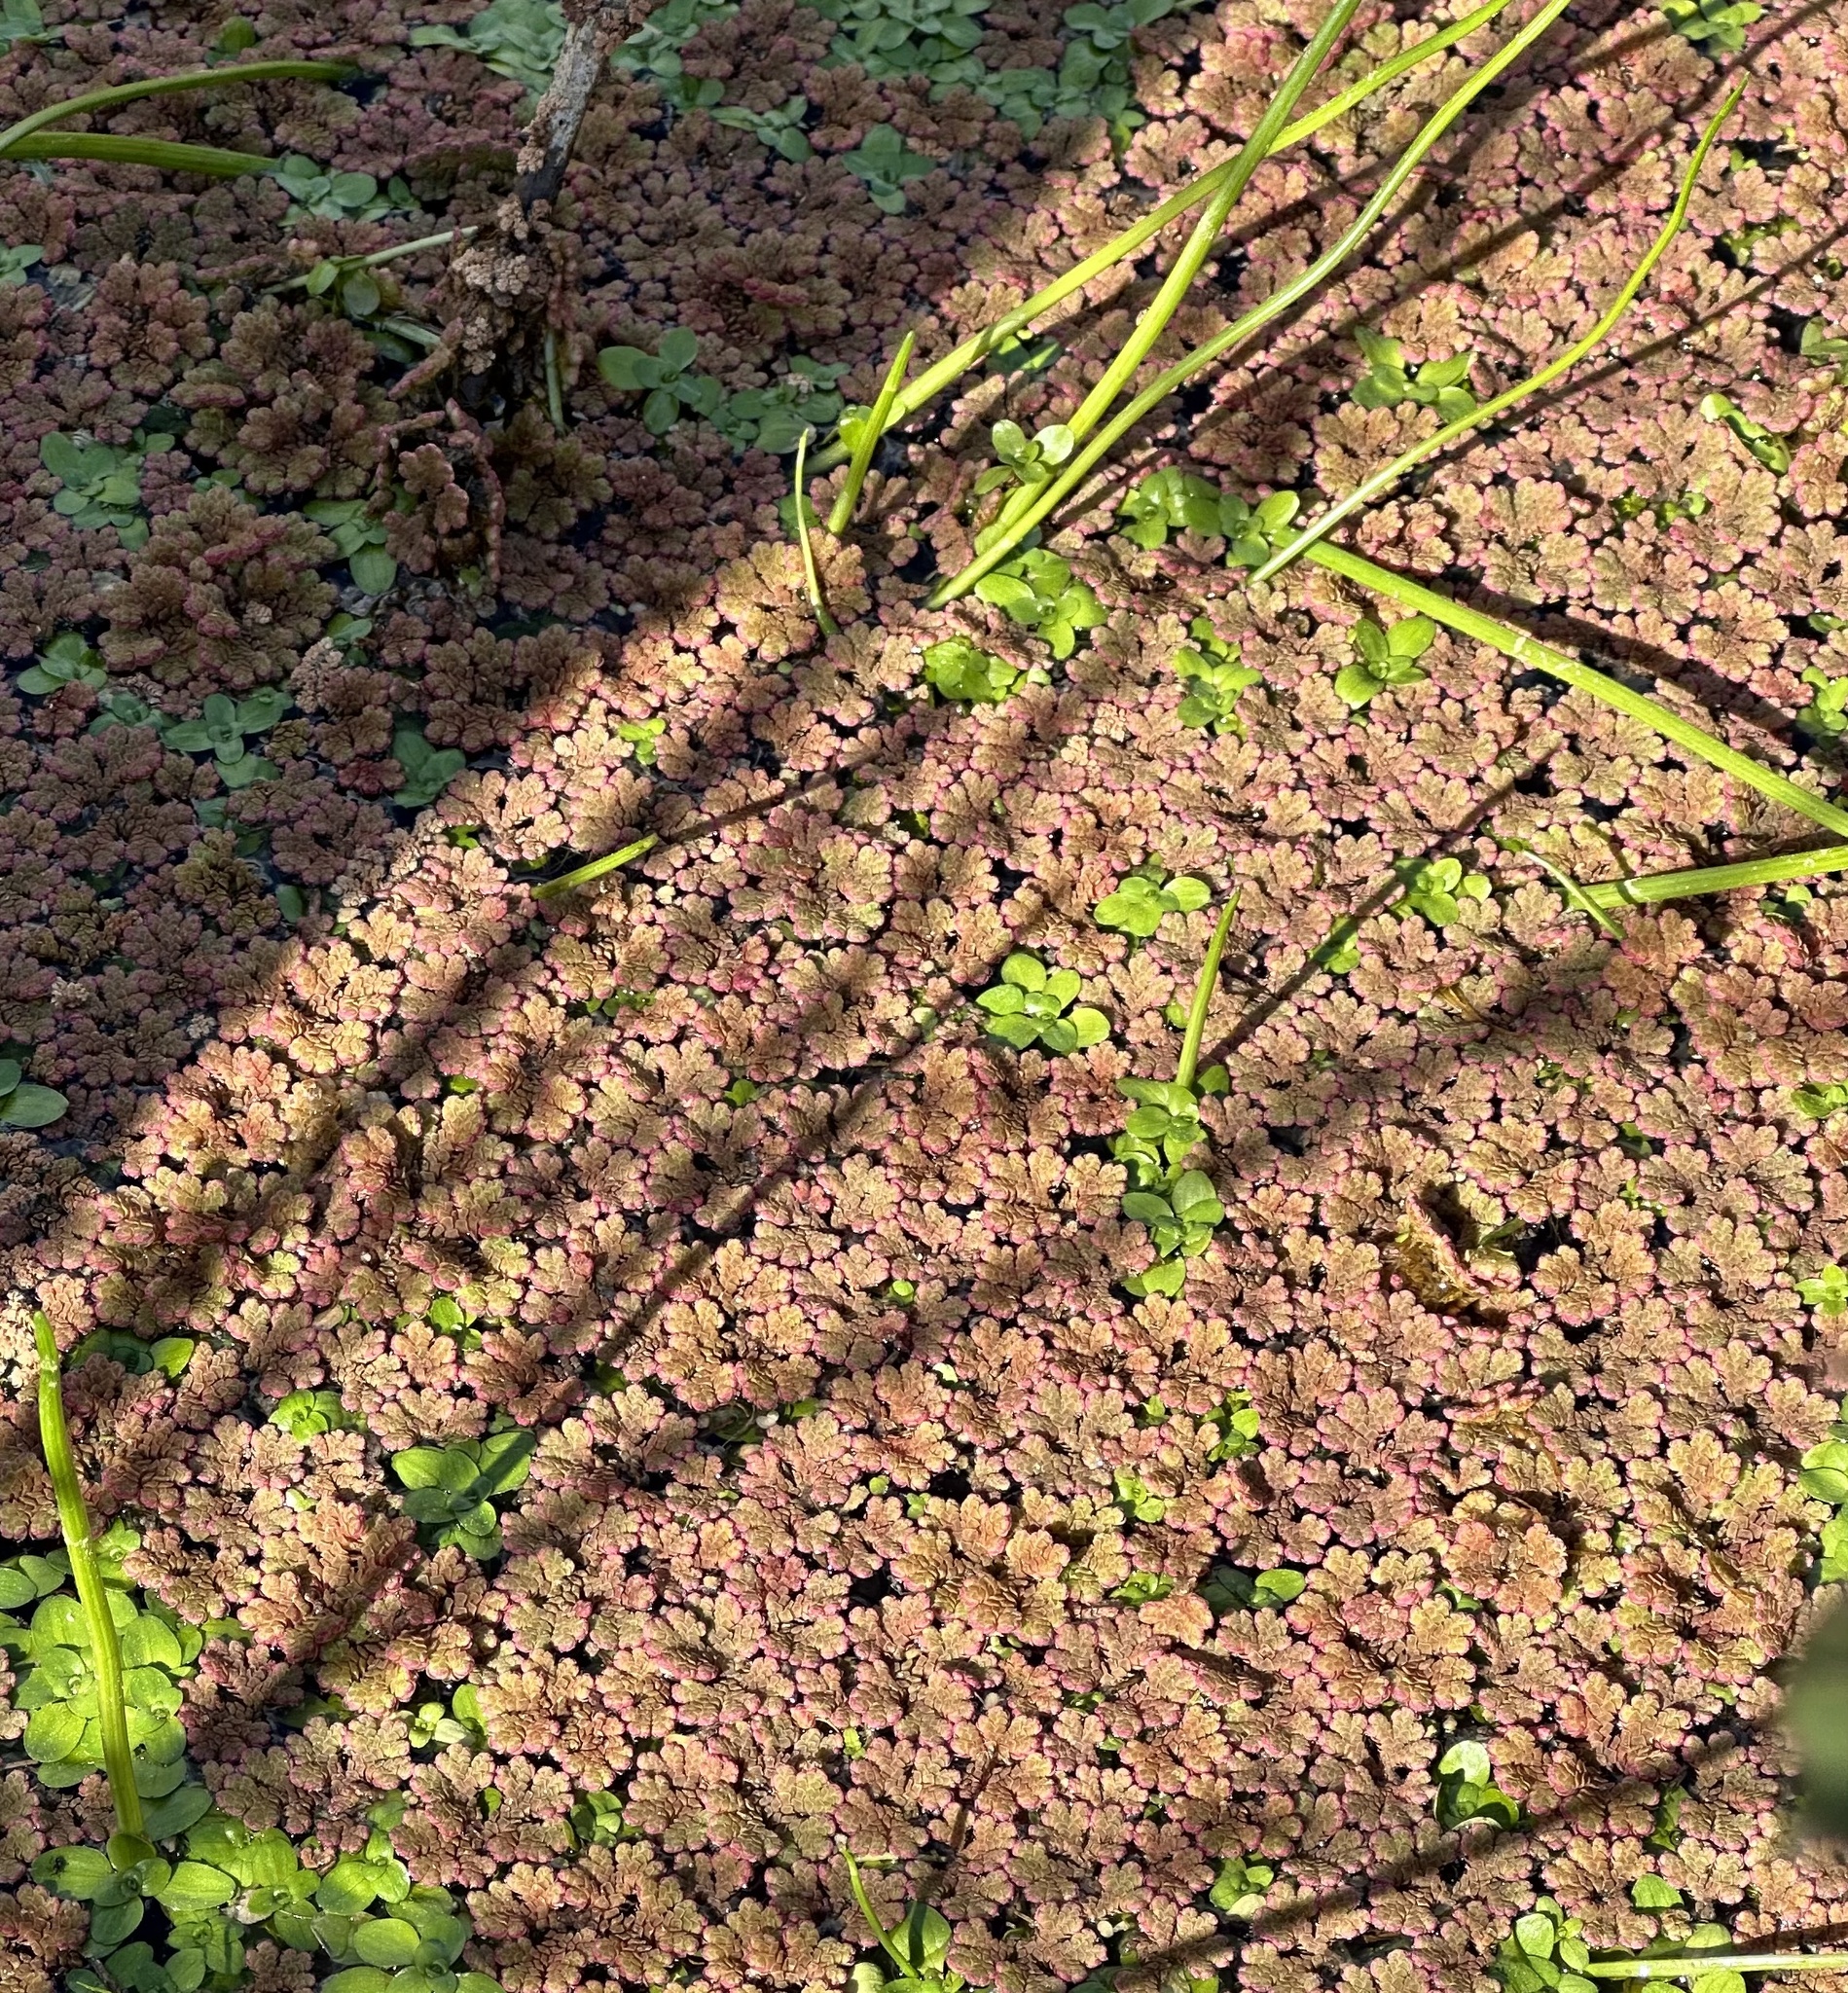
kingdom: Plantae
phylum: Tracheophyta
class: Polypodiopsida
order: Salviniales
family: Salviniaceae
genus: Azolla
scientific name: Azolla rubra
